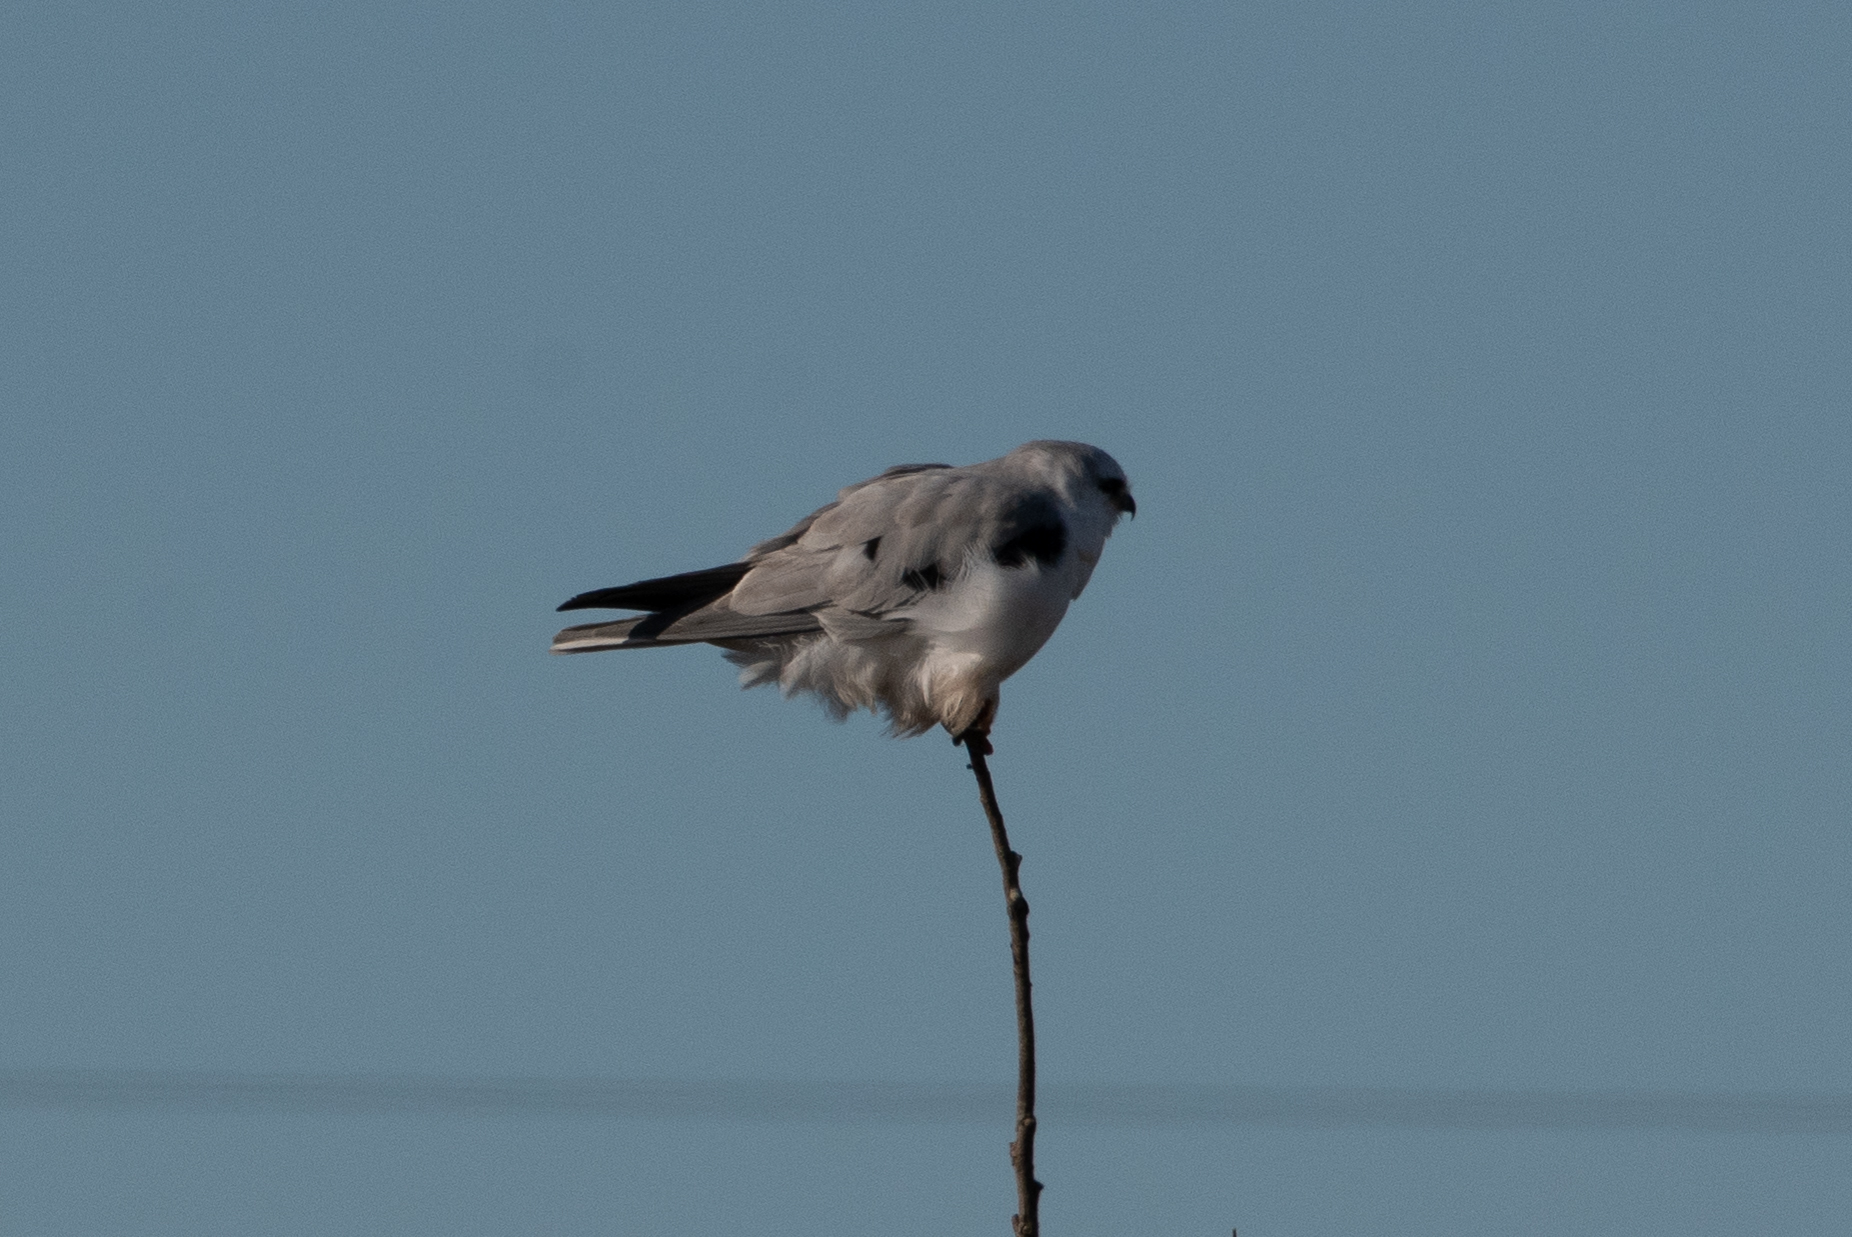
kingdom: Animalia
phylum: Chordata
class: Aves
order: Accipitriformes
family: Accipitridae
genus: Elanus
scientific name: Elanus leucurus
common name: White-tailed kite
